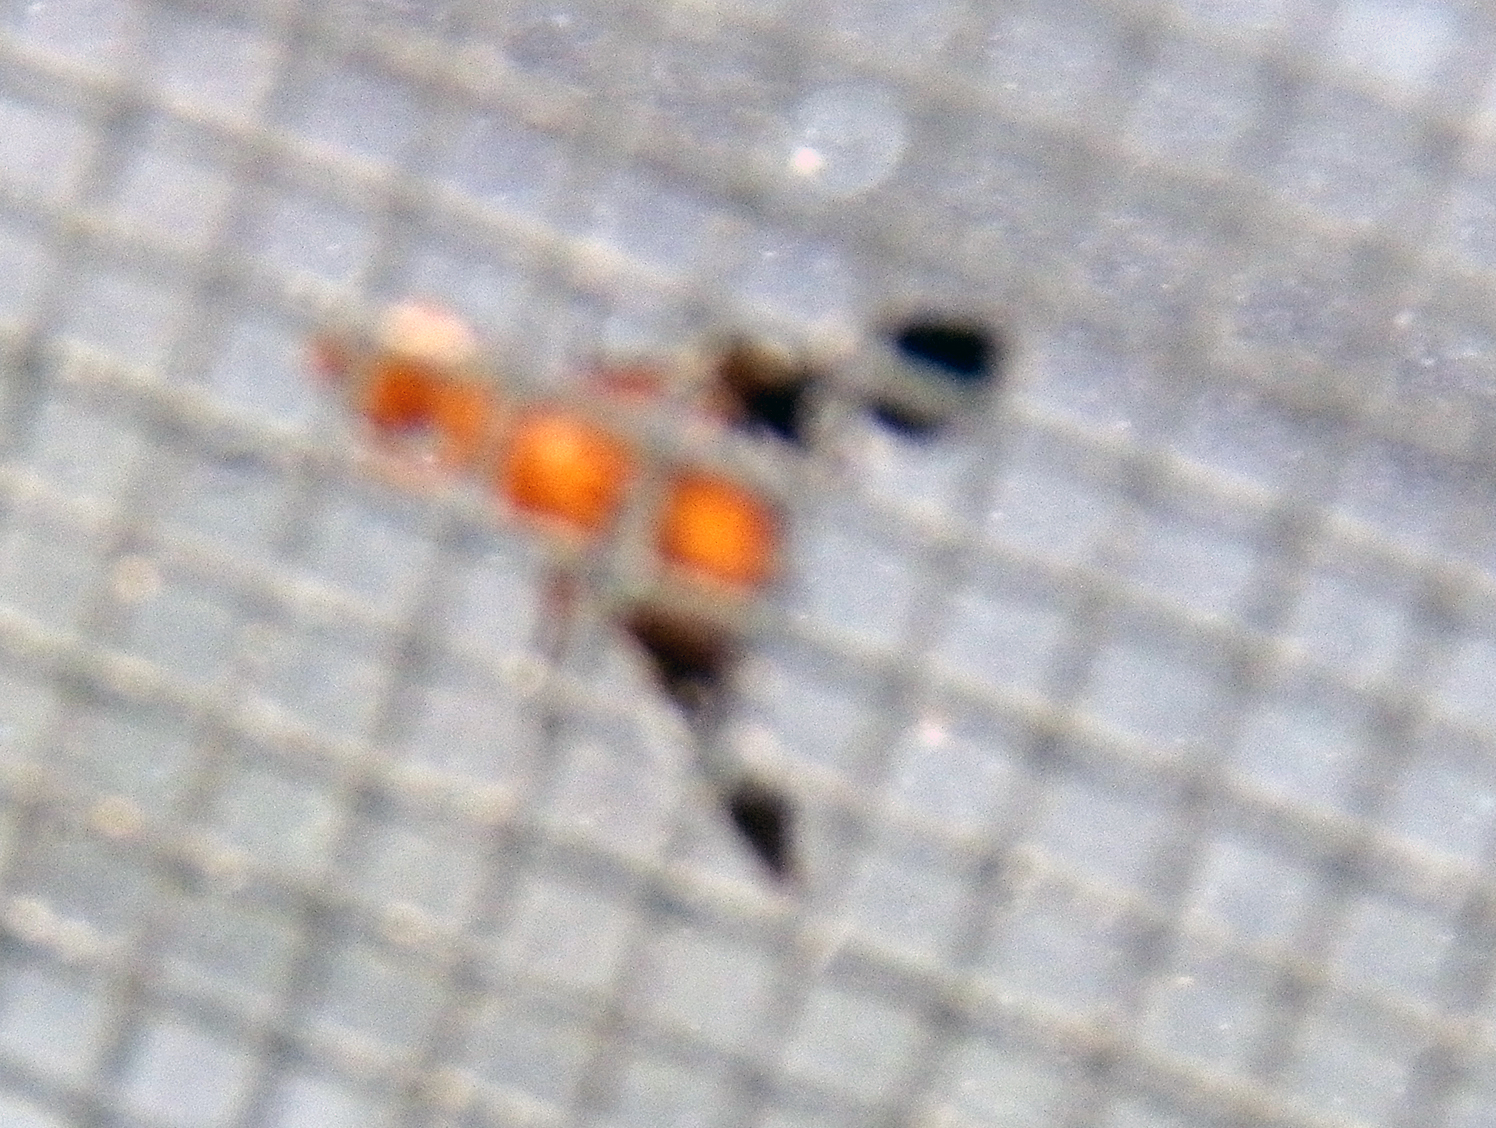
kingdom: Animalia
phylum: Arthropoda
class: Insecta
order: Diptera
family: Ulidiidae
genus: Delphinia
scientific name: Delphinia picta
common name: Common picture-winged fly
